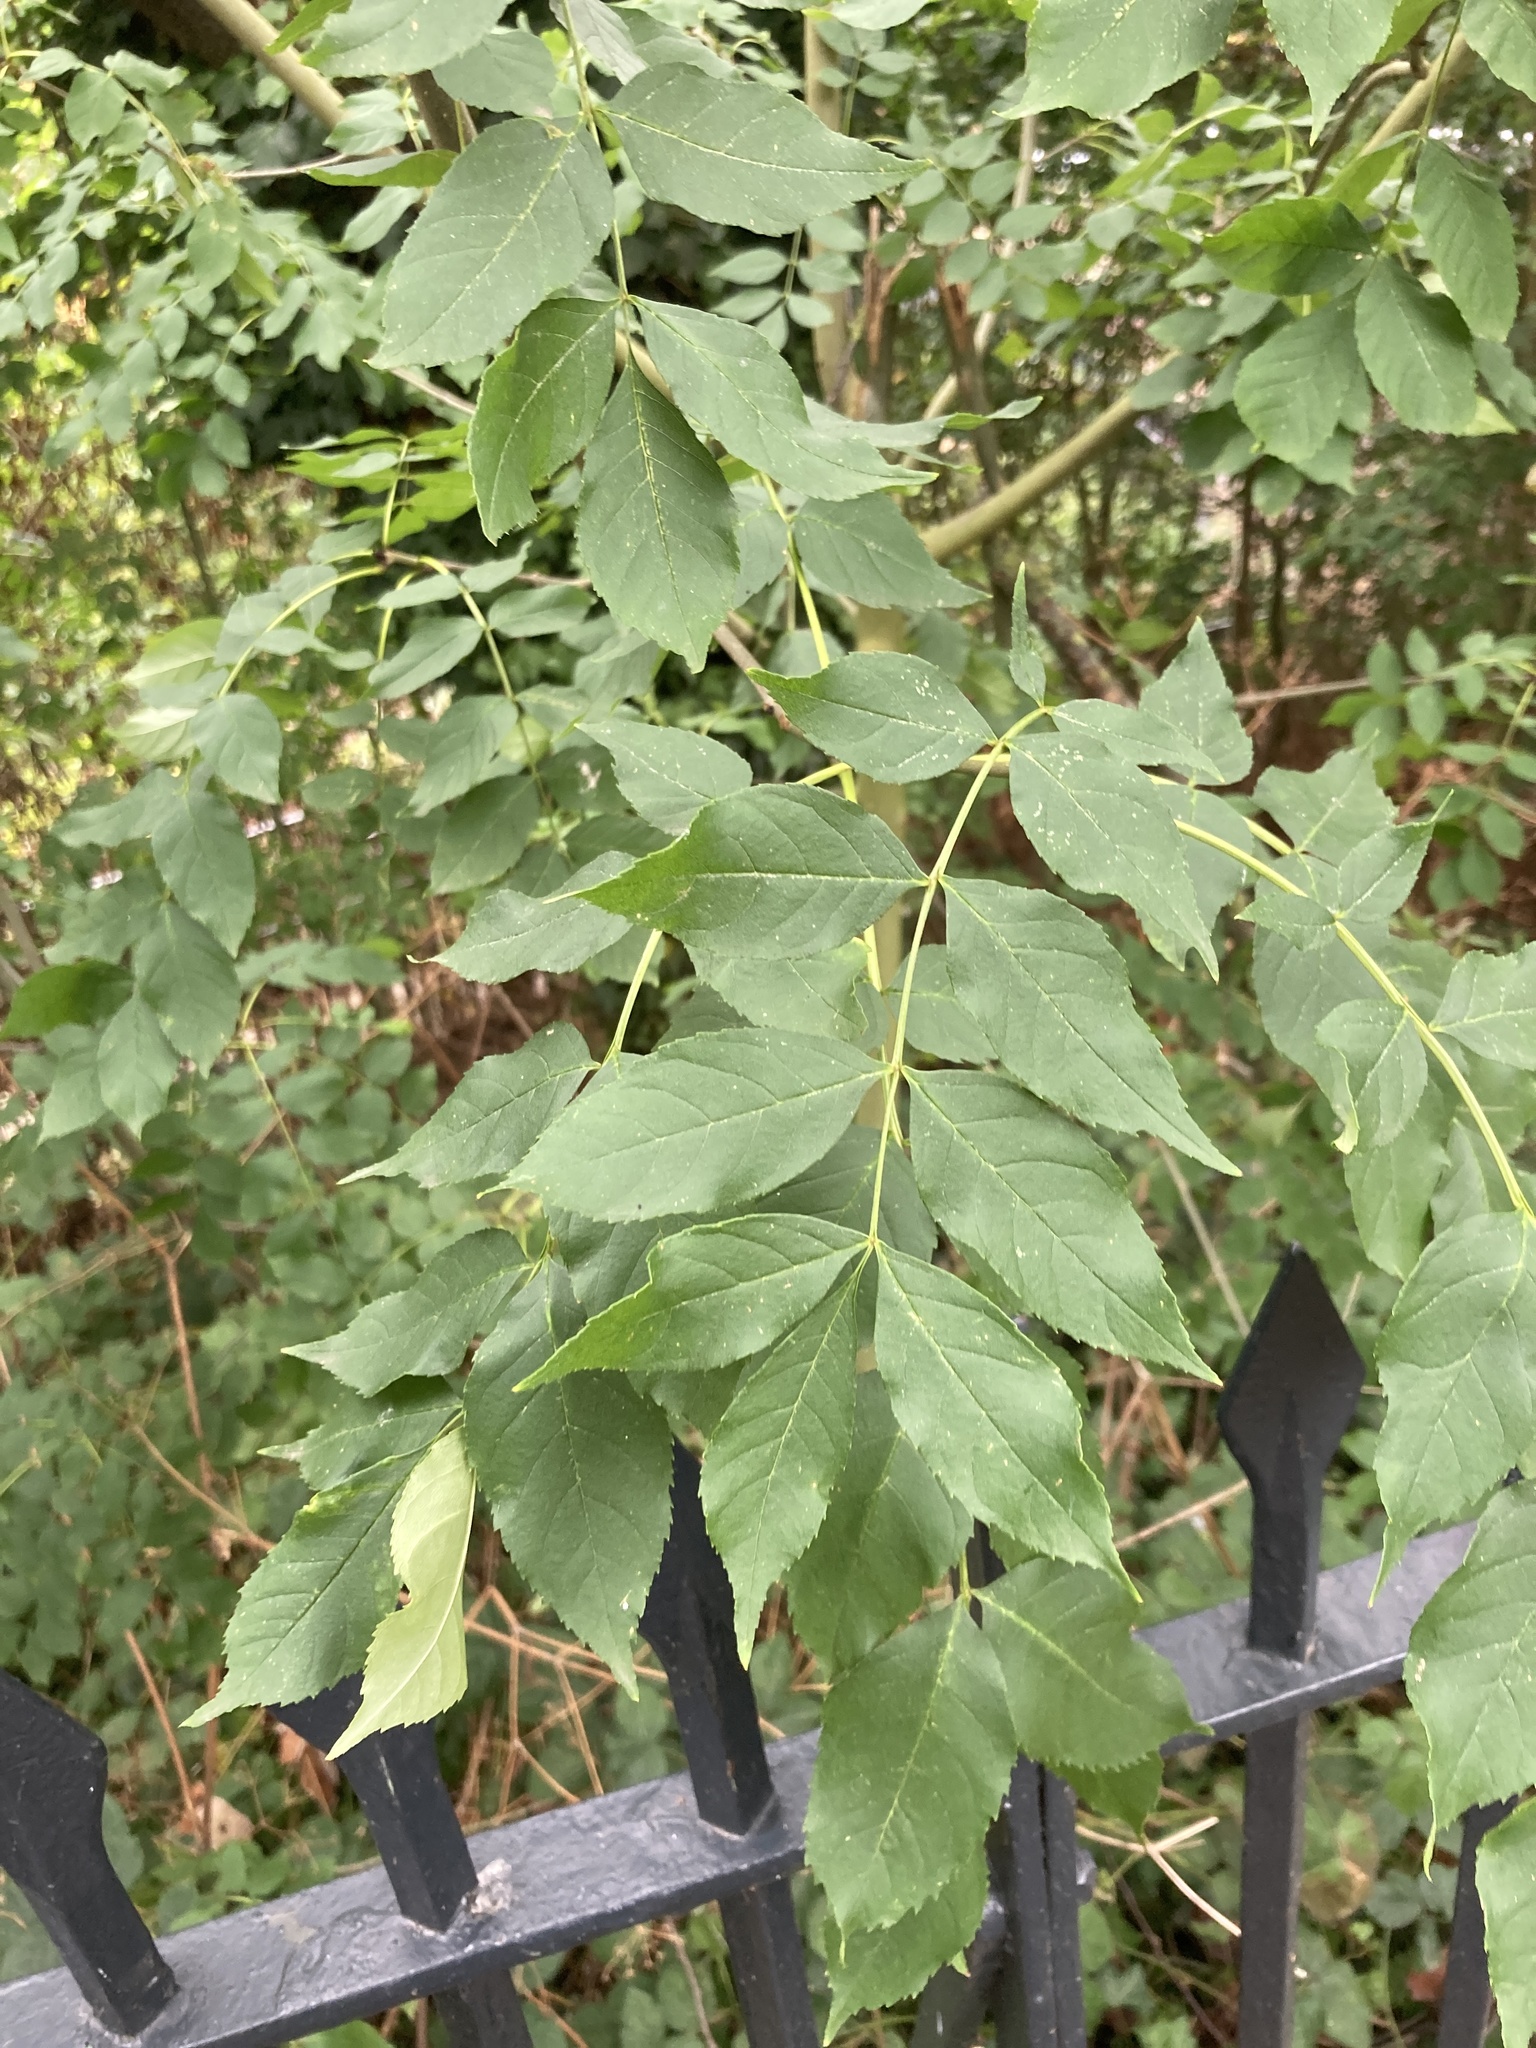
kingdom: Plantae
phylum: Tracheophyta
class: Magnoliopsida
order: Lamiales
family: Oleaceae
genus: Fraxinus
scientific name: Fraxinus excelsior
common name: European ash
